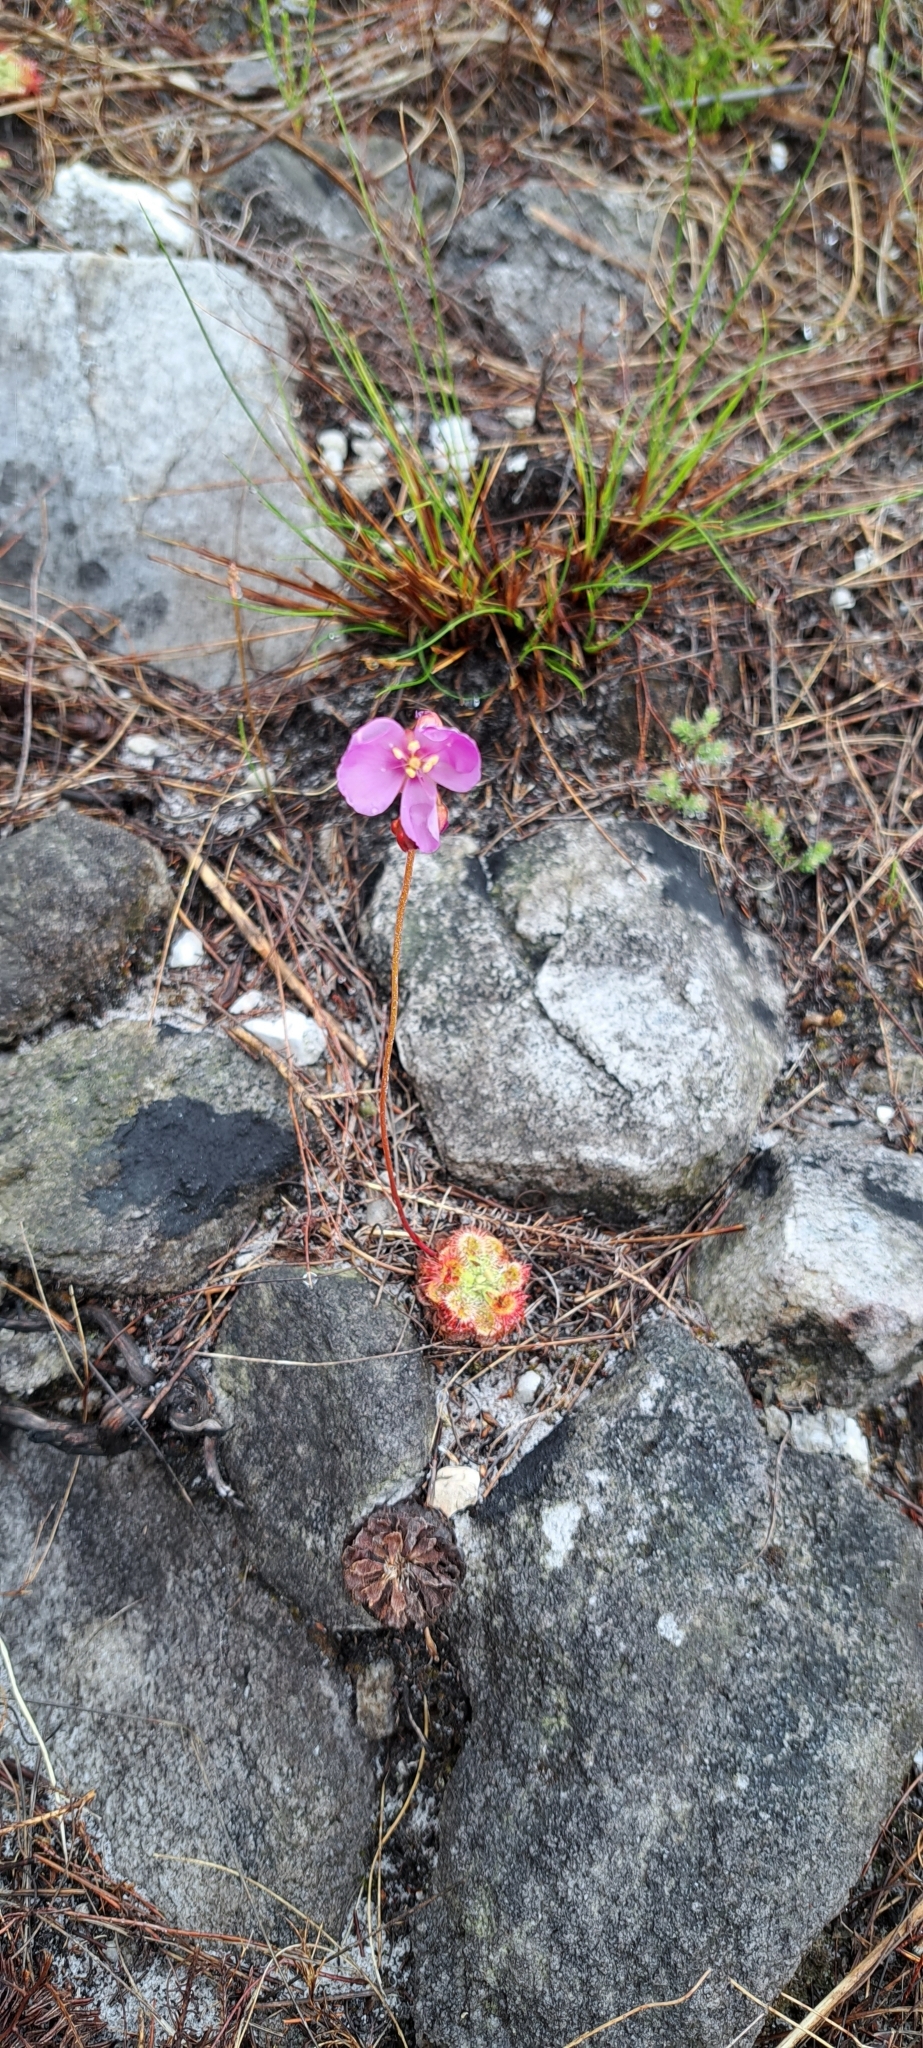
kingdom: Plantae
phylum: Tracheophyta
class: Magnoliopsida
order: Caryophyllales
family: Droseraceae
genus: Drosera
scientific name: Drosera xerophila
